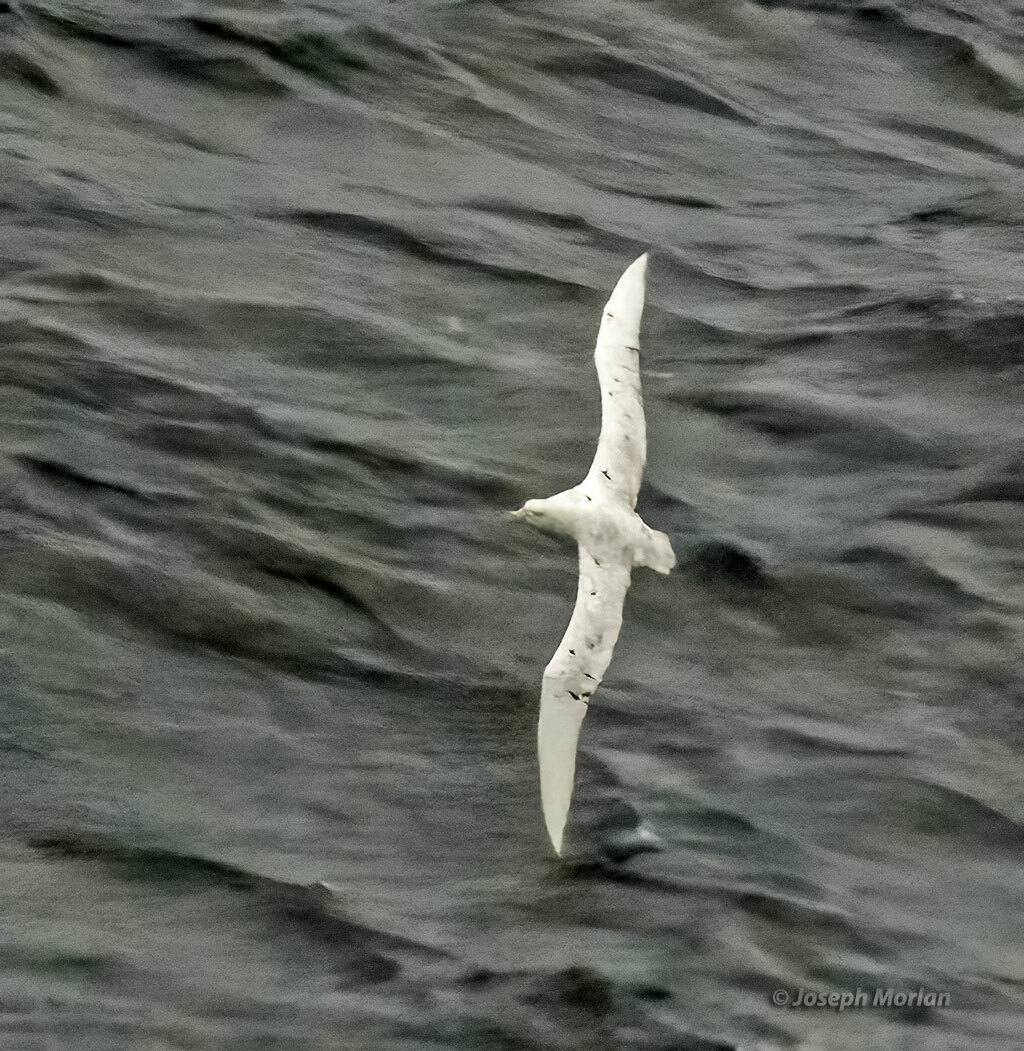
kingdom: Animalia
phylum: Chordata
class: Aves
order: Procellariiformes
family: Procellariidae
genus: Macronectes
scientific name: Macronectes giganteus
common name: Southern giant petrel
